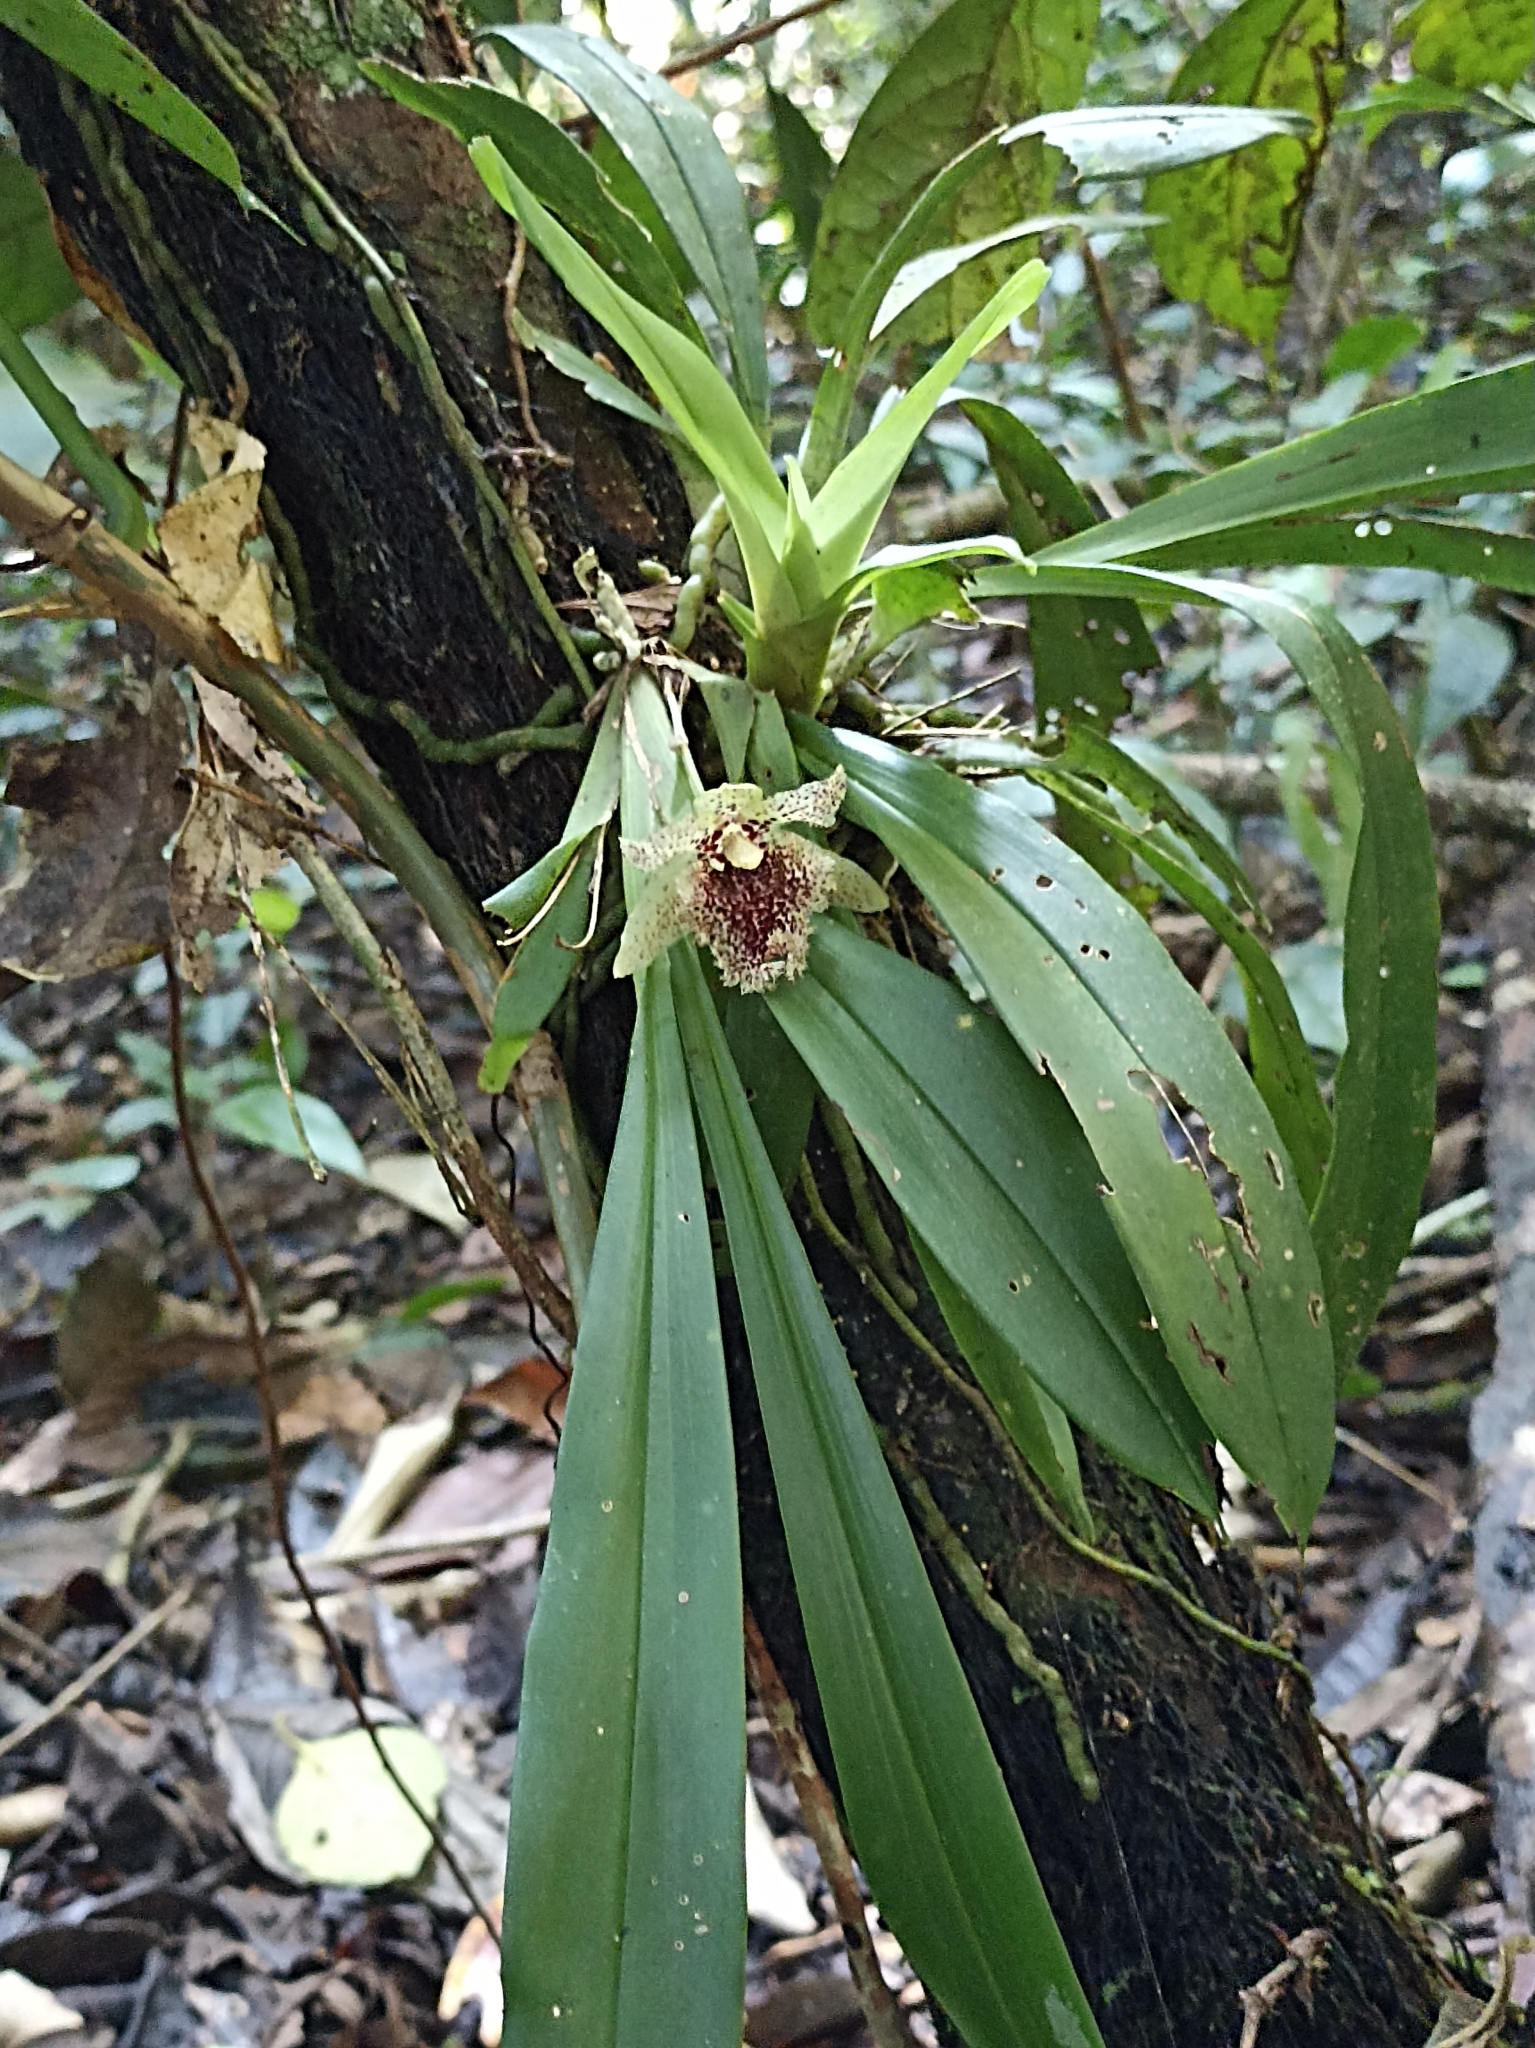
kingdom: Plantae
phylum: Tracheophyta
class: Liliopsida
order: Asparagales
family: Orchidaceae
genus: Kefersteinia
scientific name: Kefersteinia tolimensis
